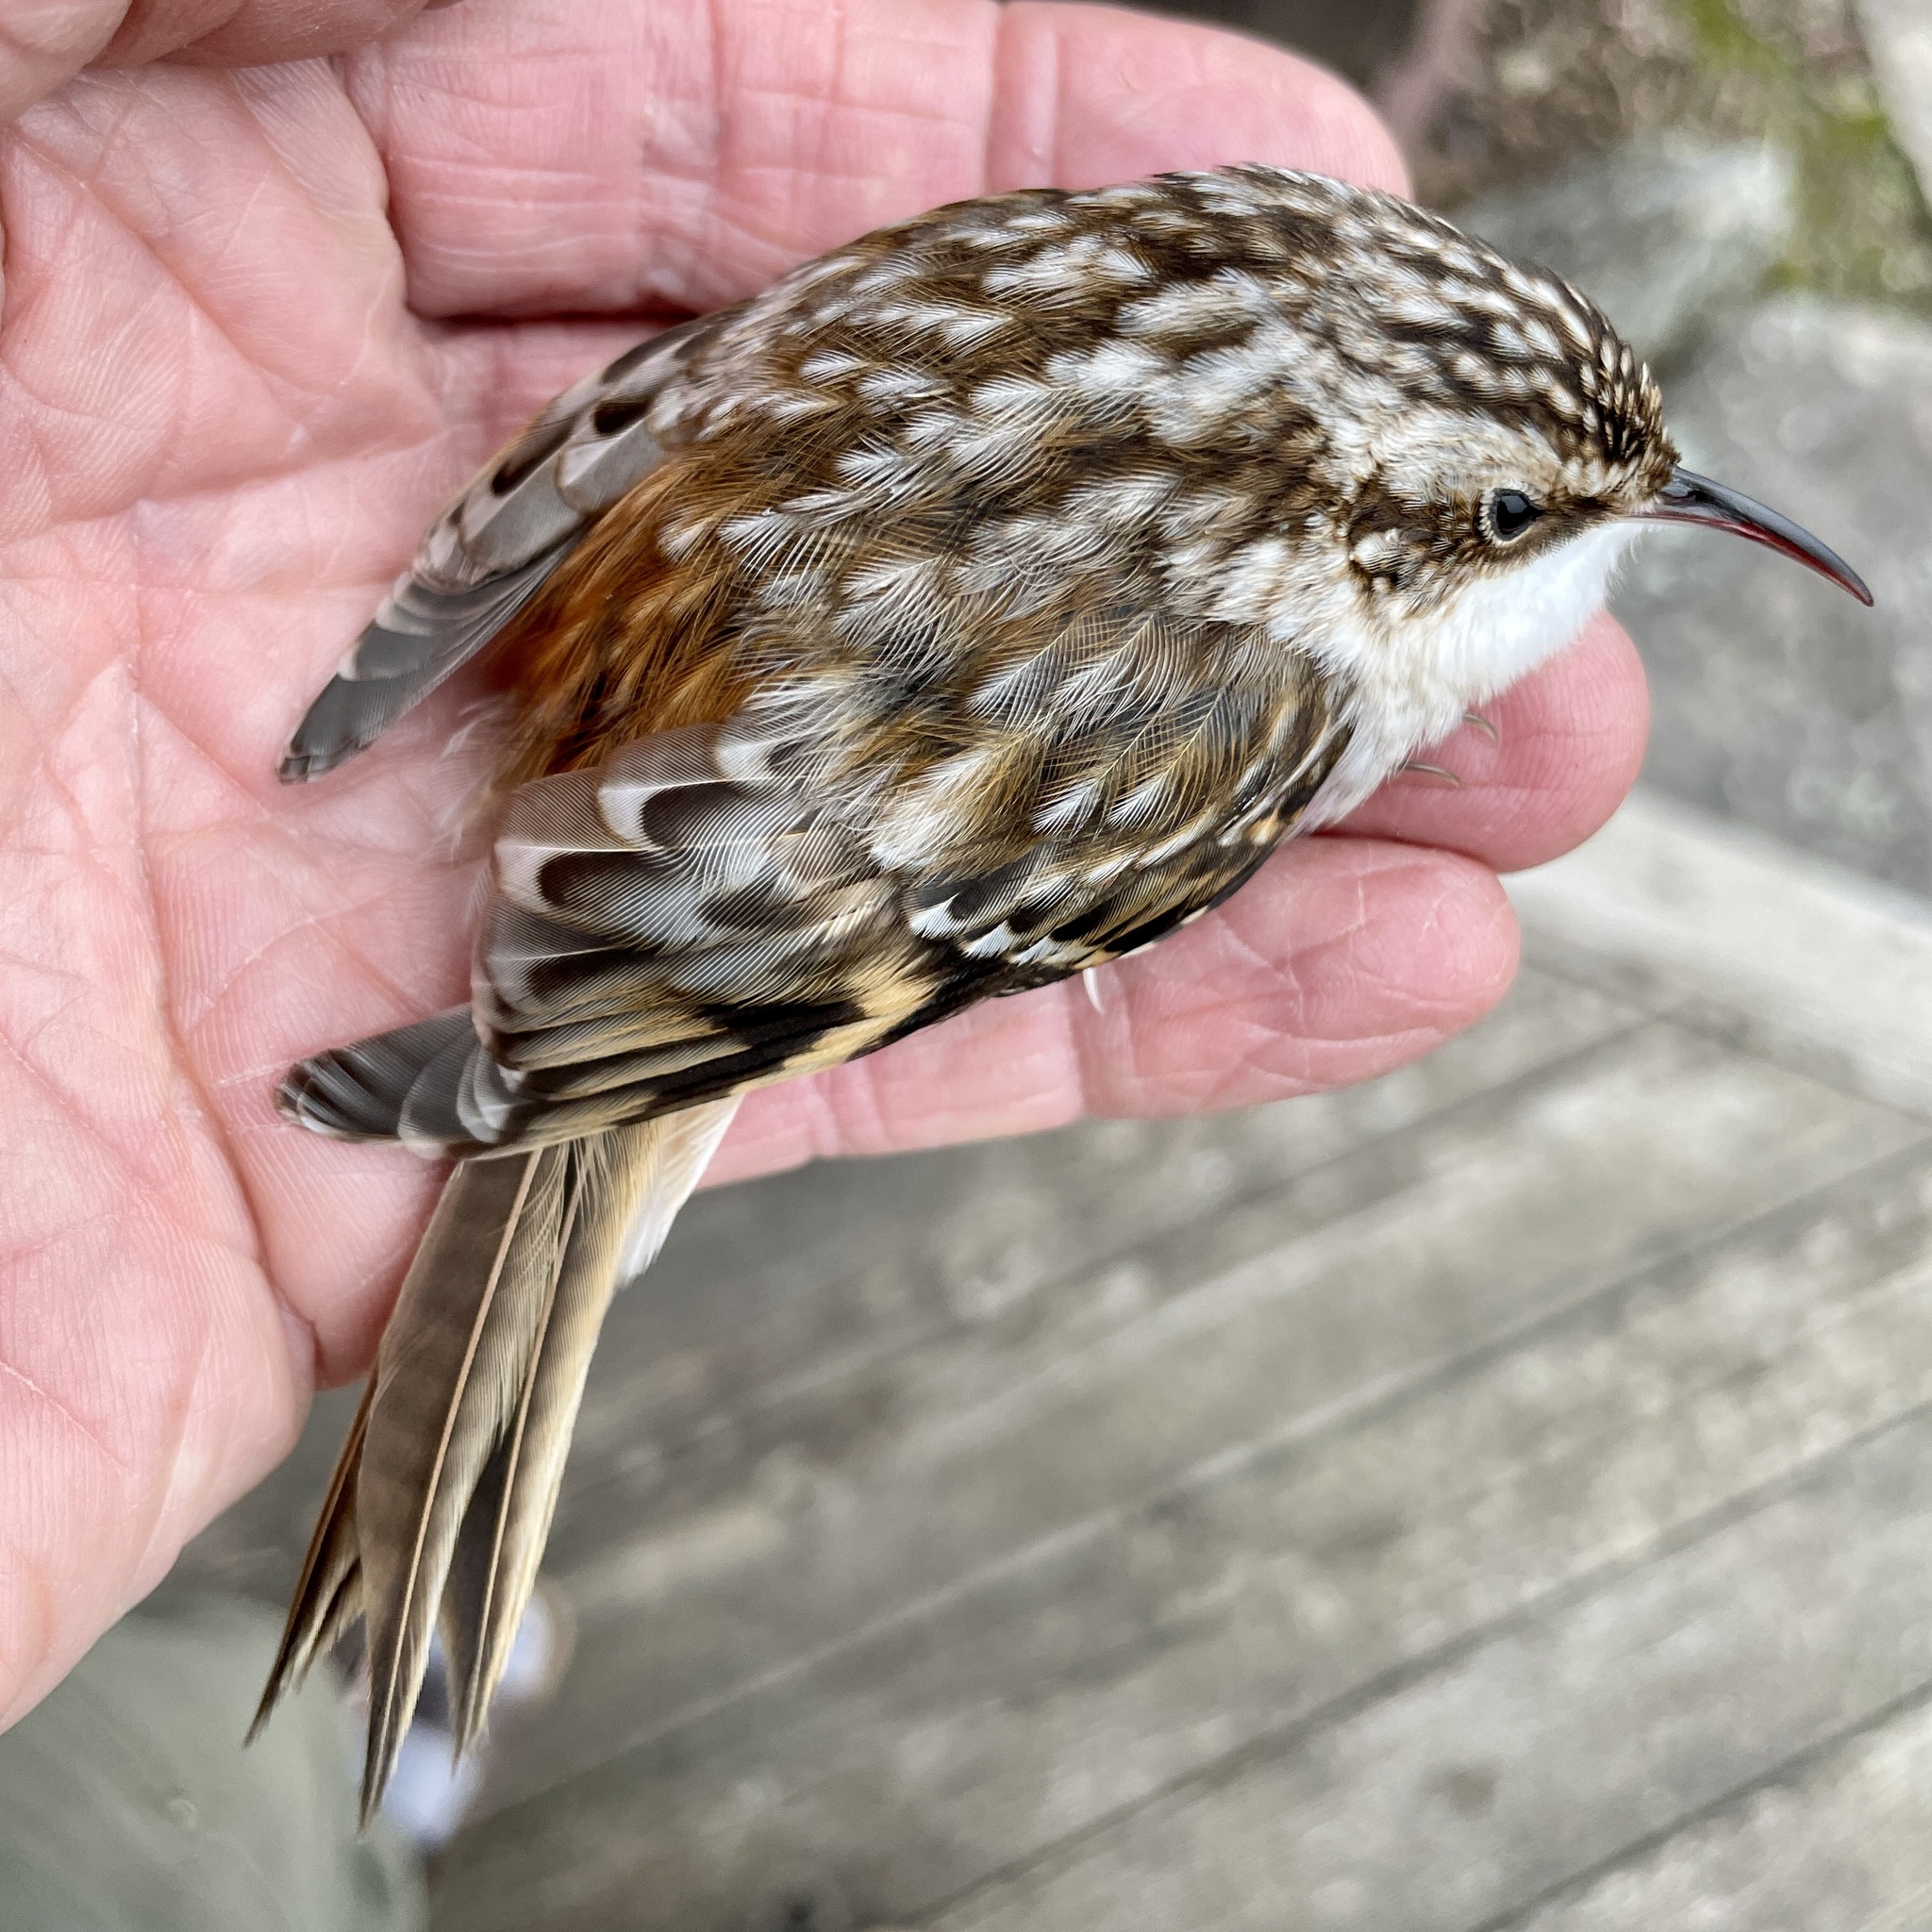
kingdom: Animalia
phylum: Chordata
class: Aves
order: Passeriformes
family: Certhiidae
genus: Certhia
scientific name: Certhia americana
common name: Brown creeper
